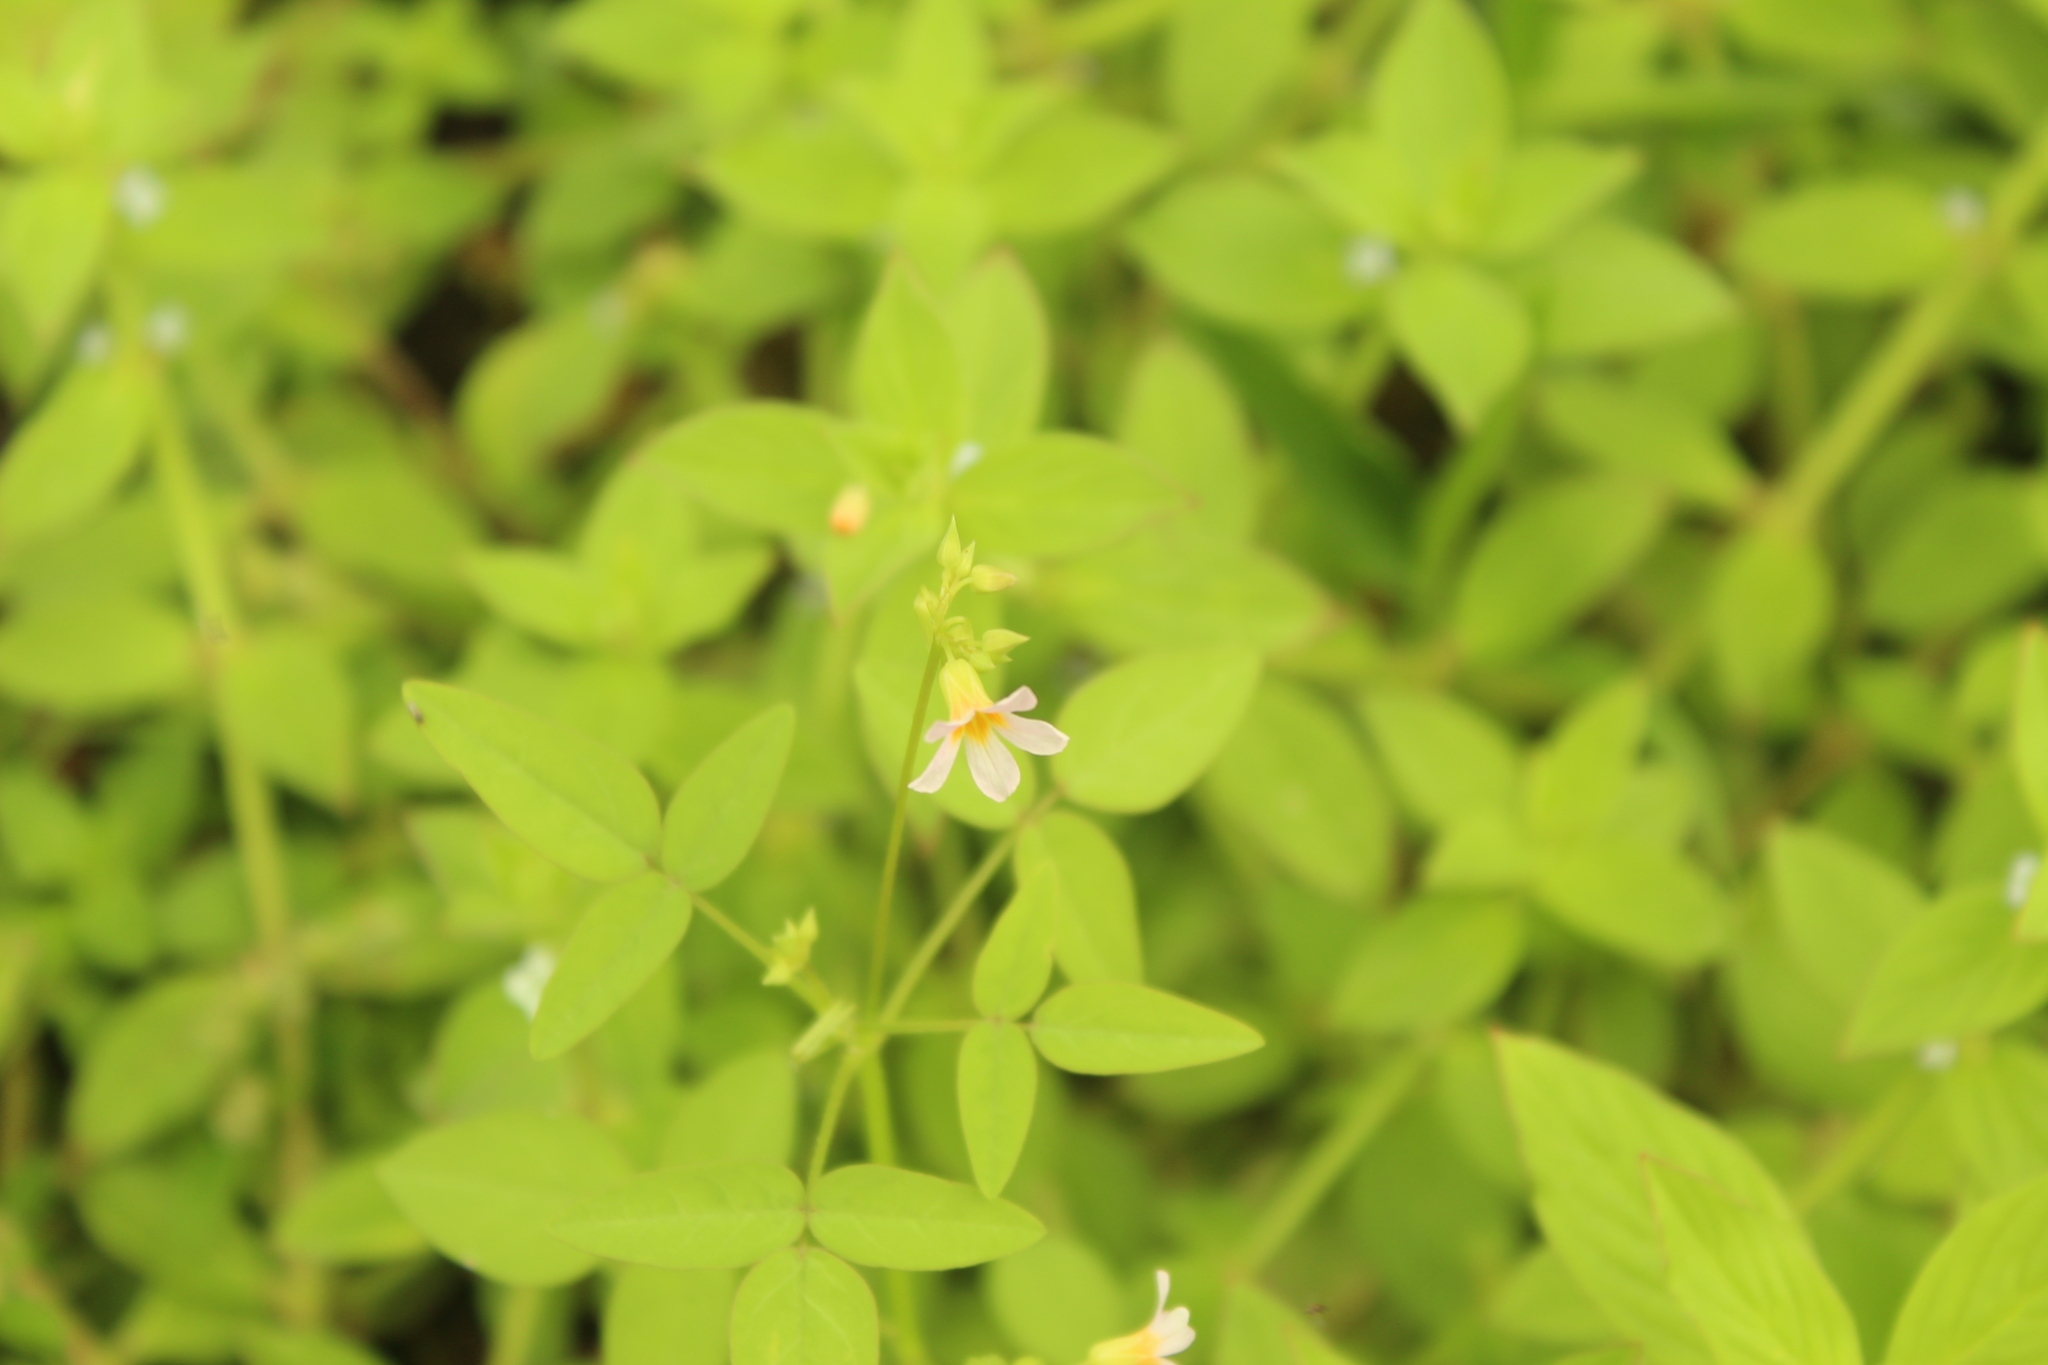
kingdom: Plantae
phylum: Tracheophyta
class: Magnoliopsida
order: Oxalidales
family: Oxalidaceae
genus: Oxalis
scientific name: Oxalis barrelieri
